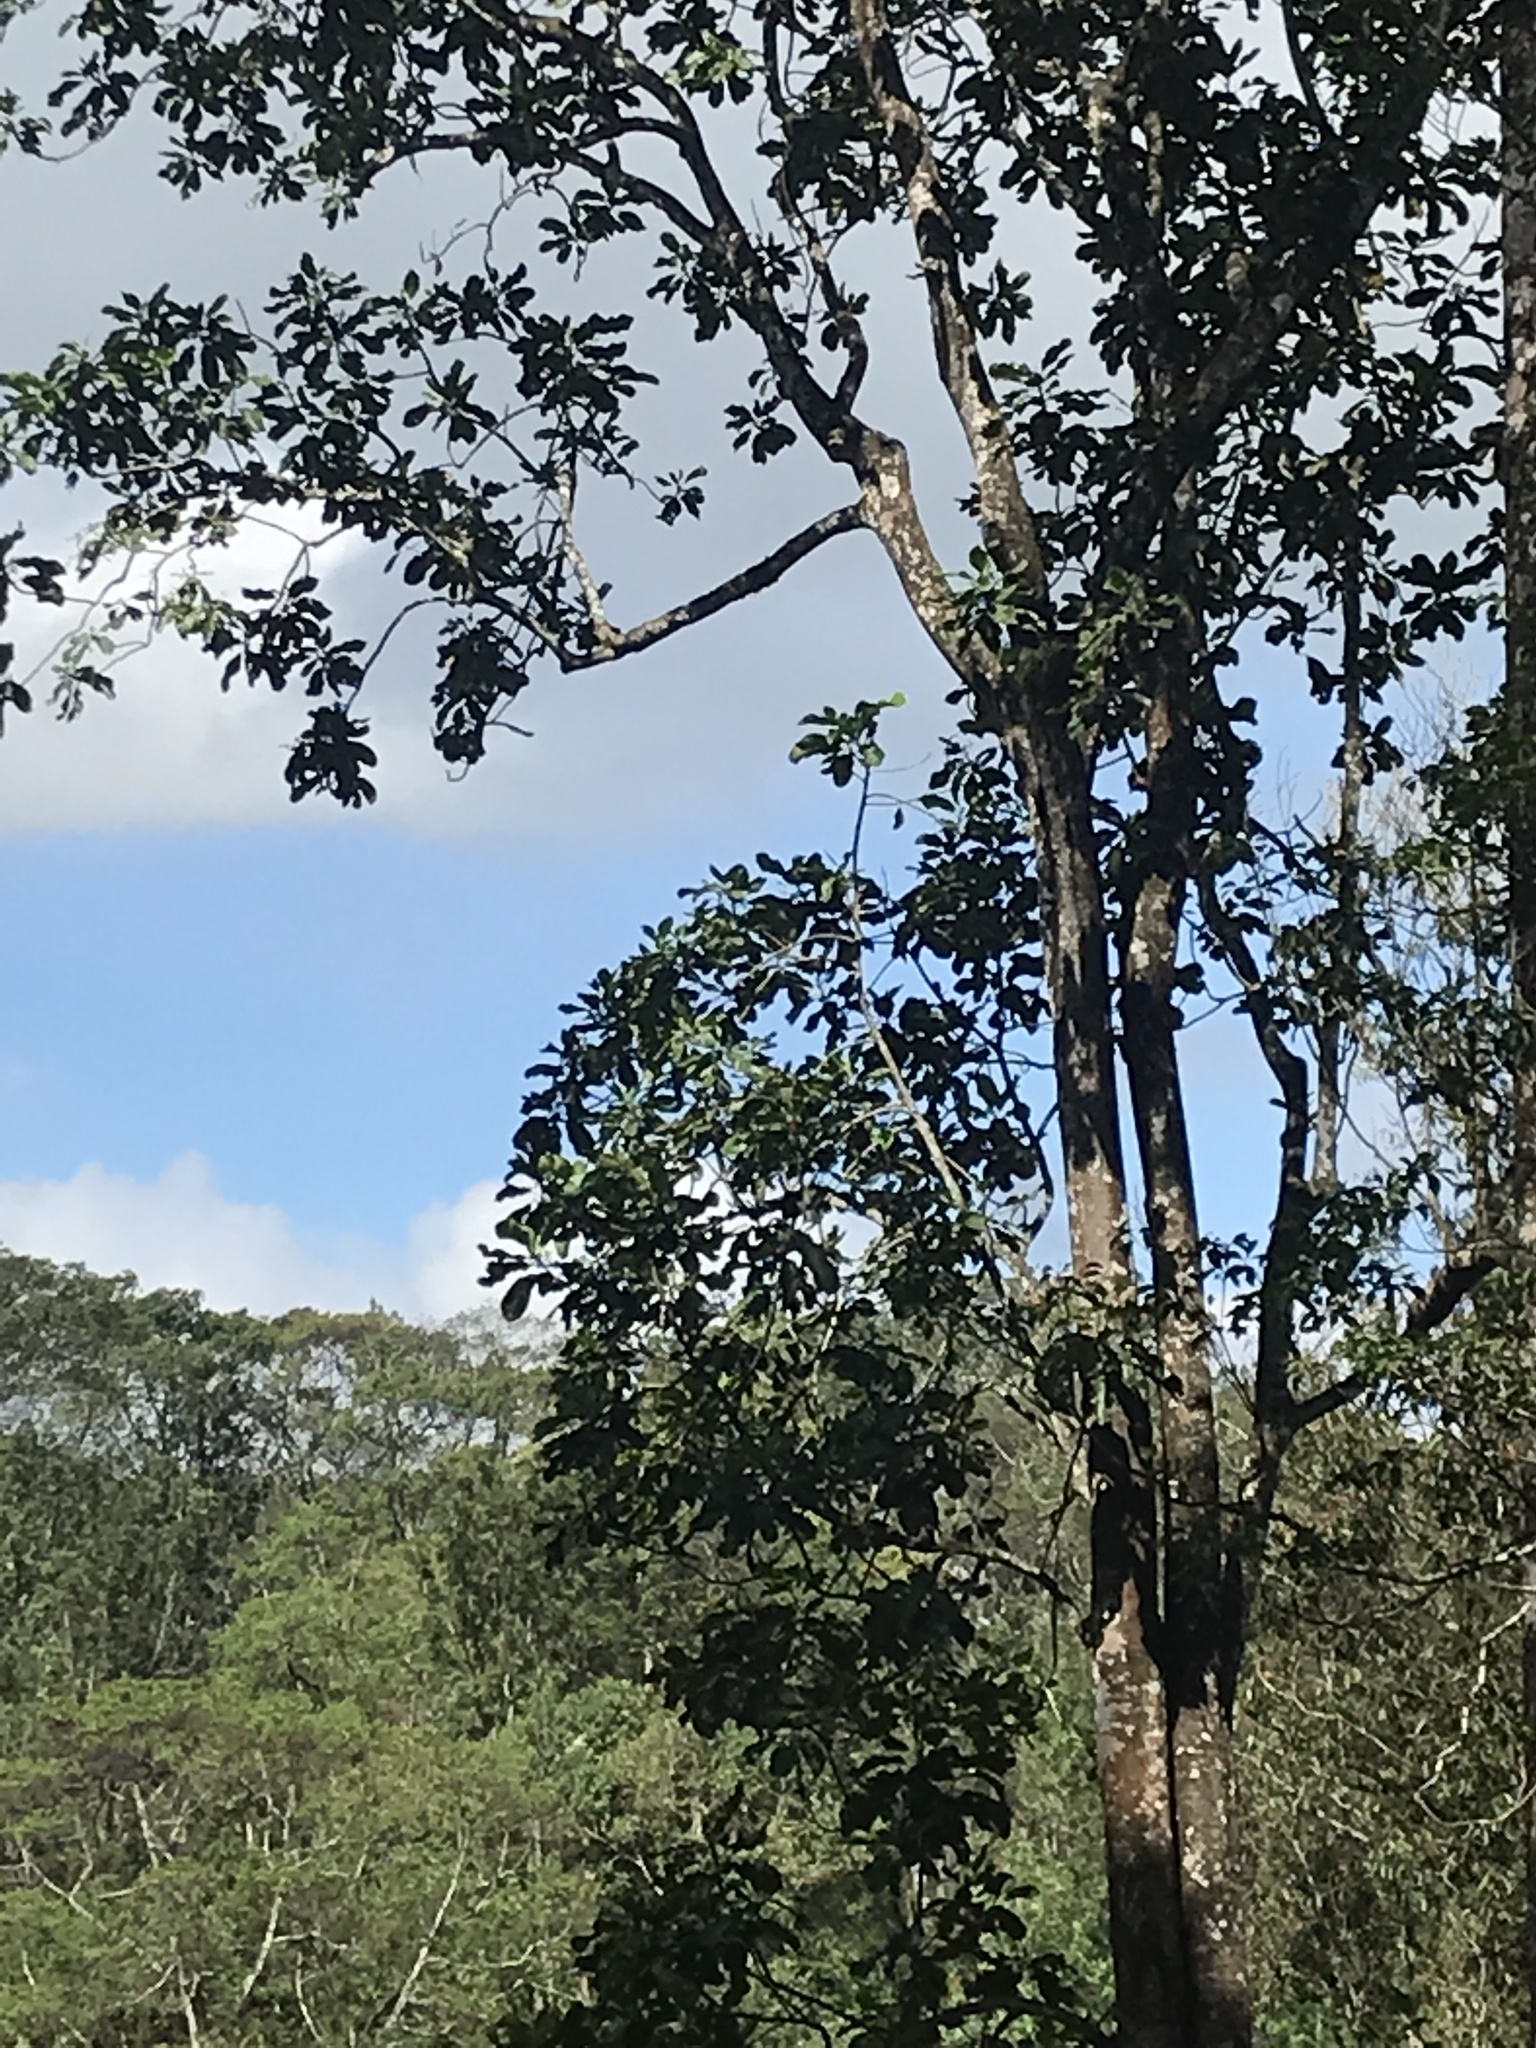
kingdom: Plantae
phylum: Tracheophyta
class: Magnoliopsida
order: Sapindales
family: Anacardiaceae
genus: Semecarpus
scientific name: Semecarpus travancoricus
